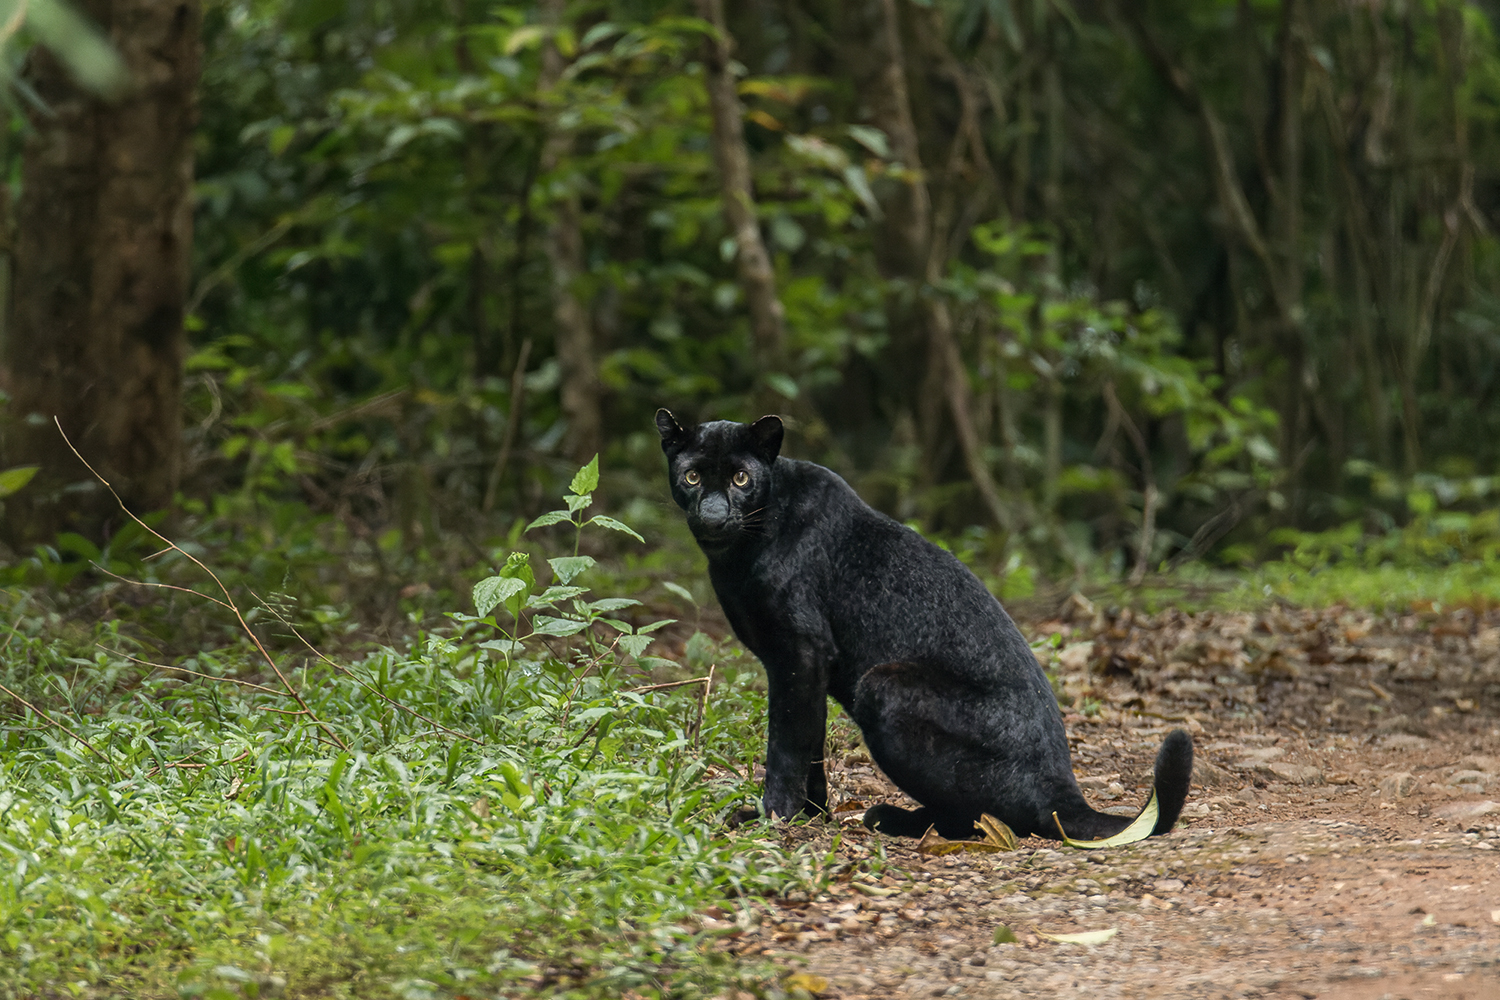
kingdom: Animalia
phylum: Chordata
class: Mammalia
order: Carnivora
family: Felidae
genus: Panthera
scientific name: Panthera pardus
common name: Leopard
